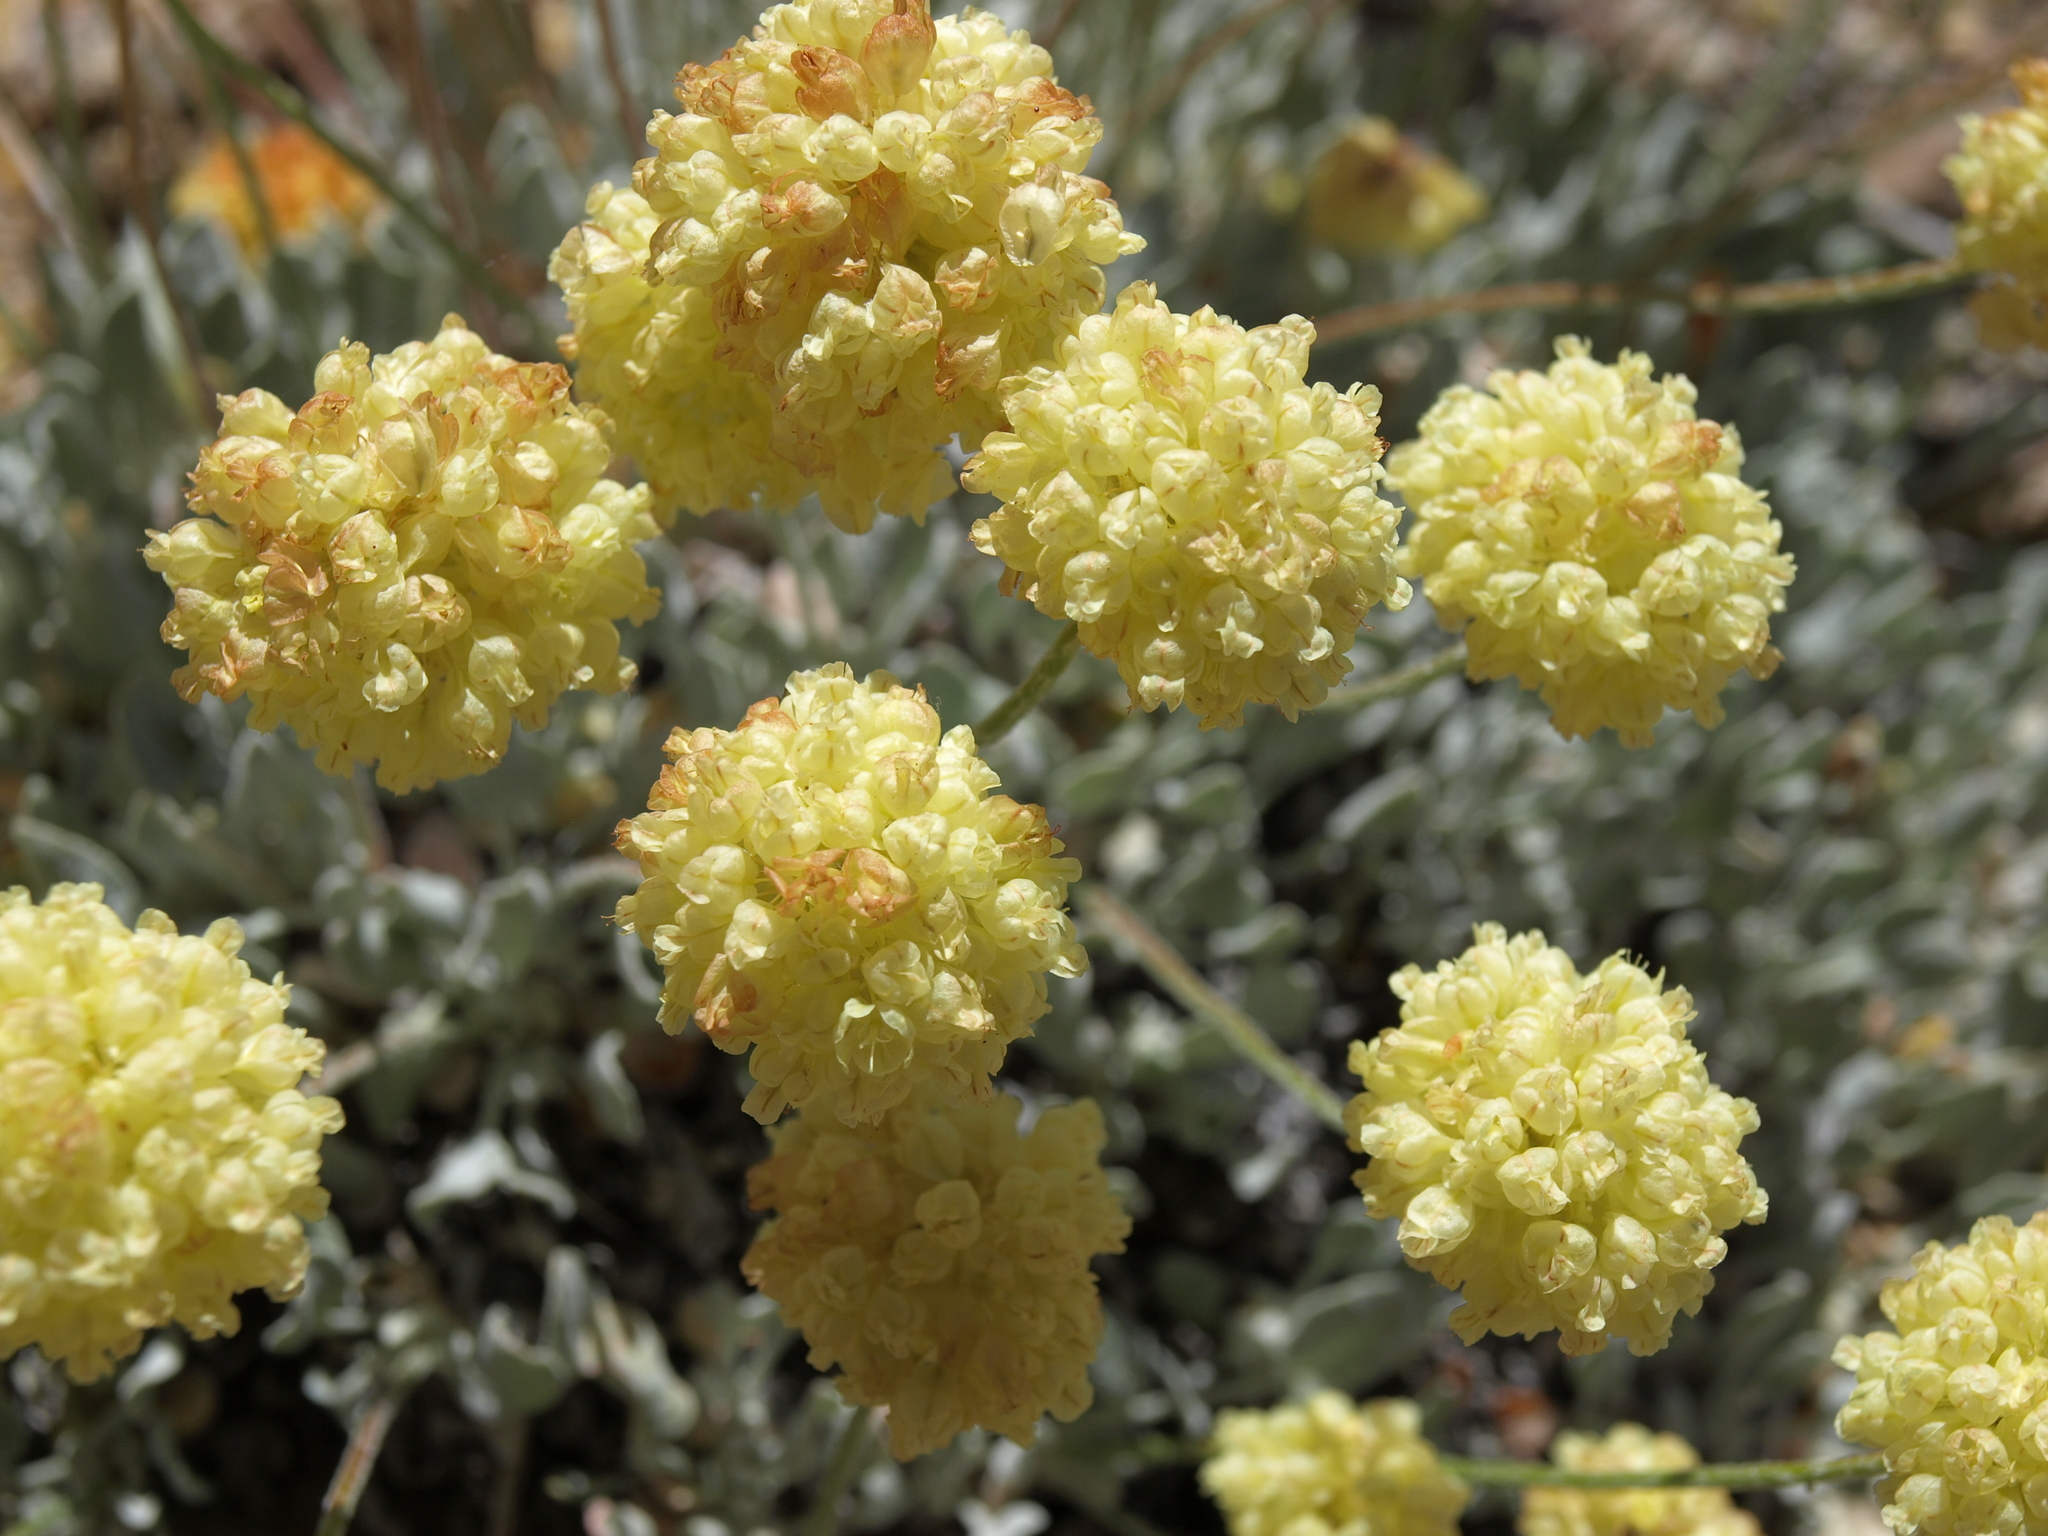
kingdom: Plantae
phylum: Tracheophyta
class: Magnoliopsida
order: Caryophyllales
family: Polygonaceae
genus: Eriogonum
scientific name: Eriogonum ovalifolium
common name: Cushion buckwheat
